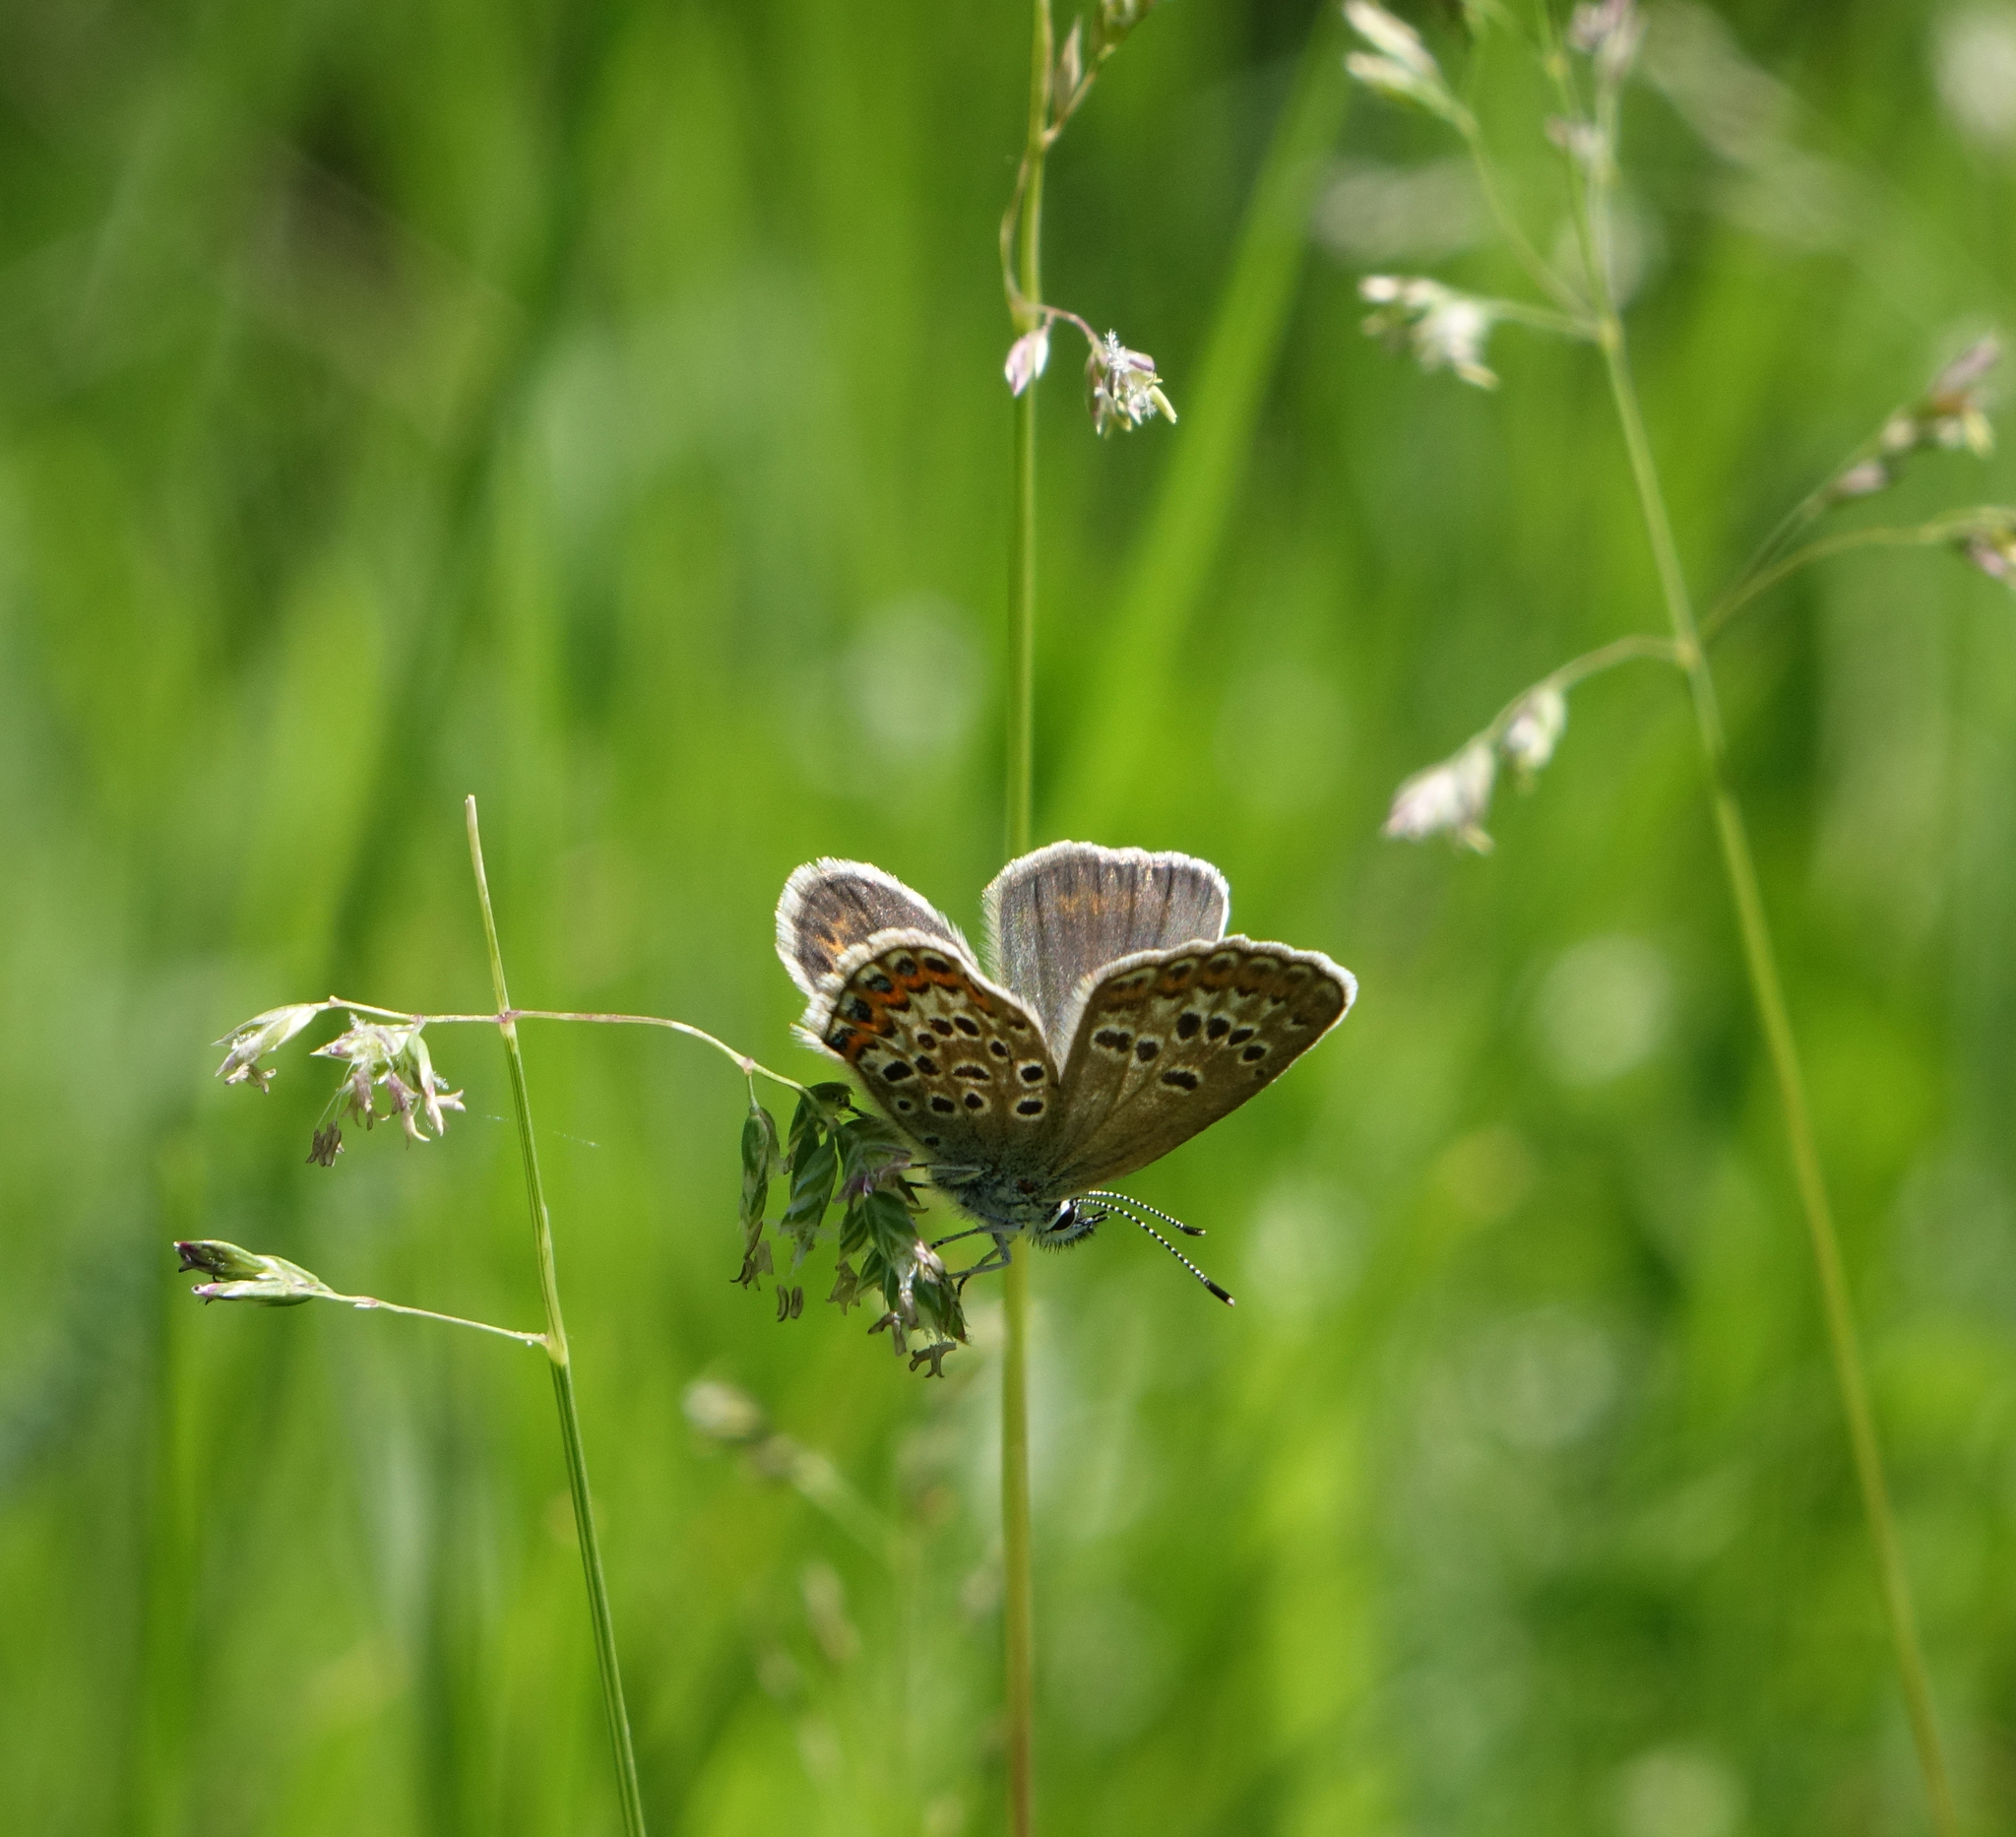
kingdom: Animalia
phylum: Arthropoda
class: Insecta
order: Lepidoptera
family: Lycaenidae
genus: Plebejus
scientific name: Plebejus argus
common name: Silver-studded blue
